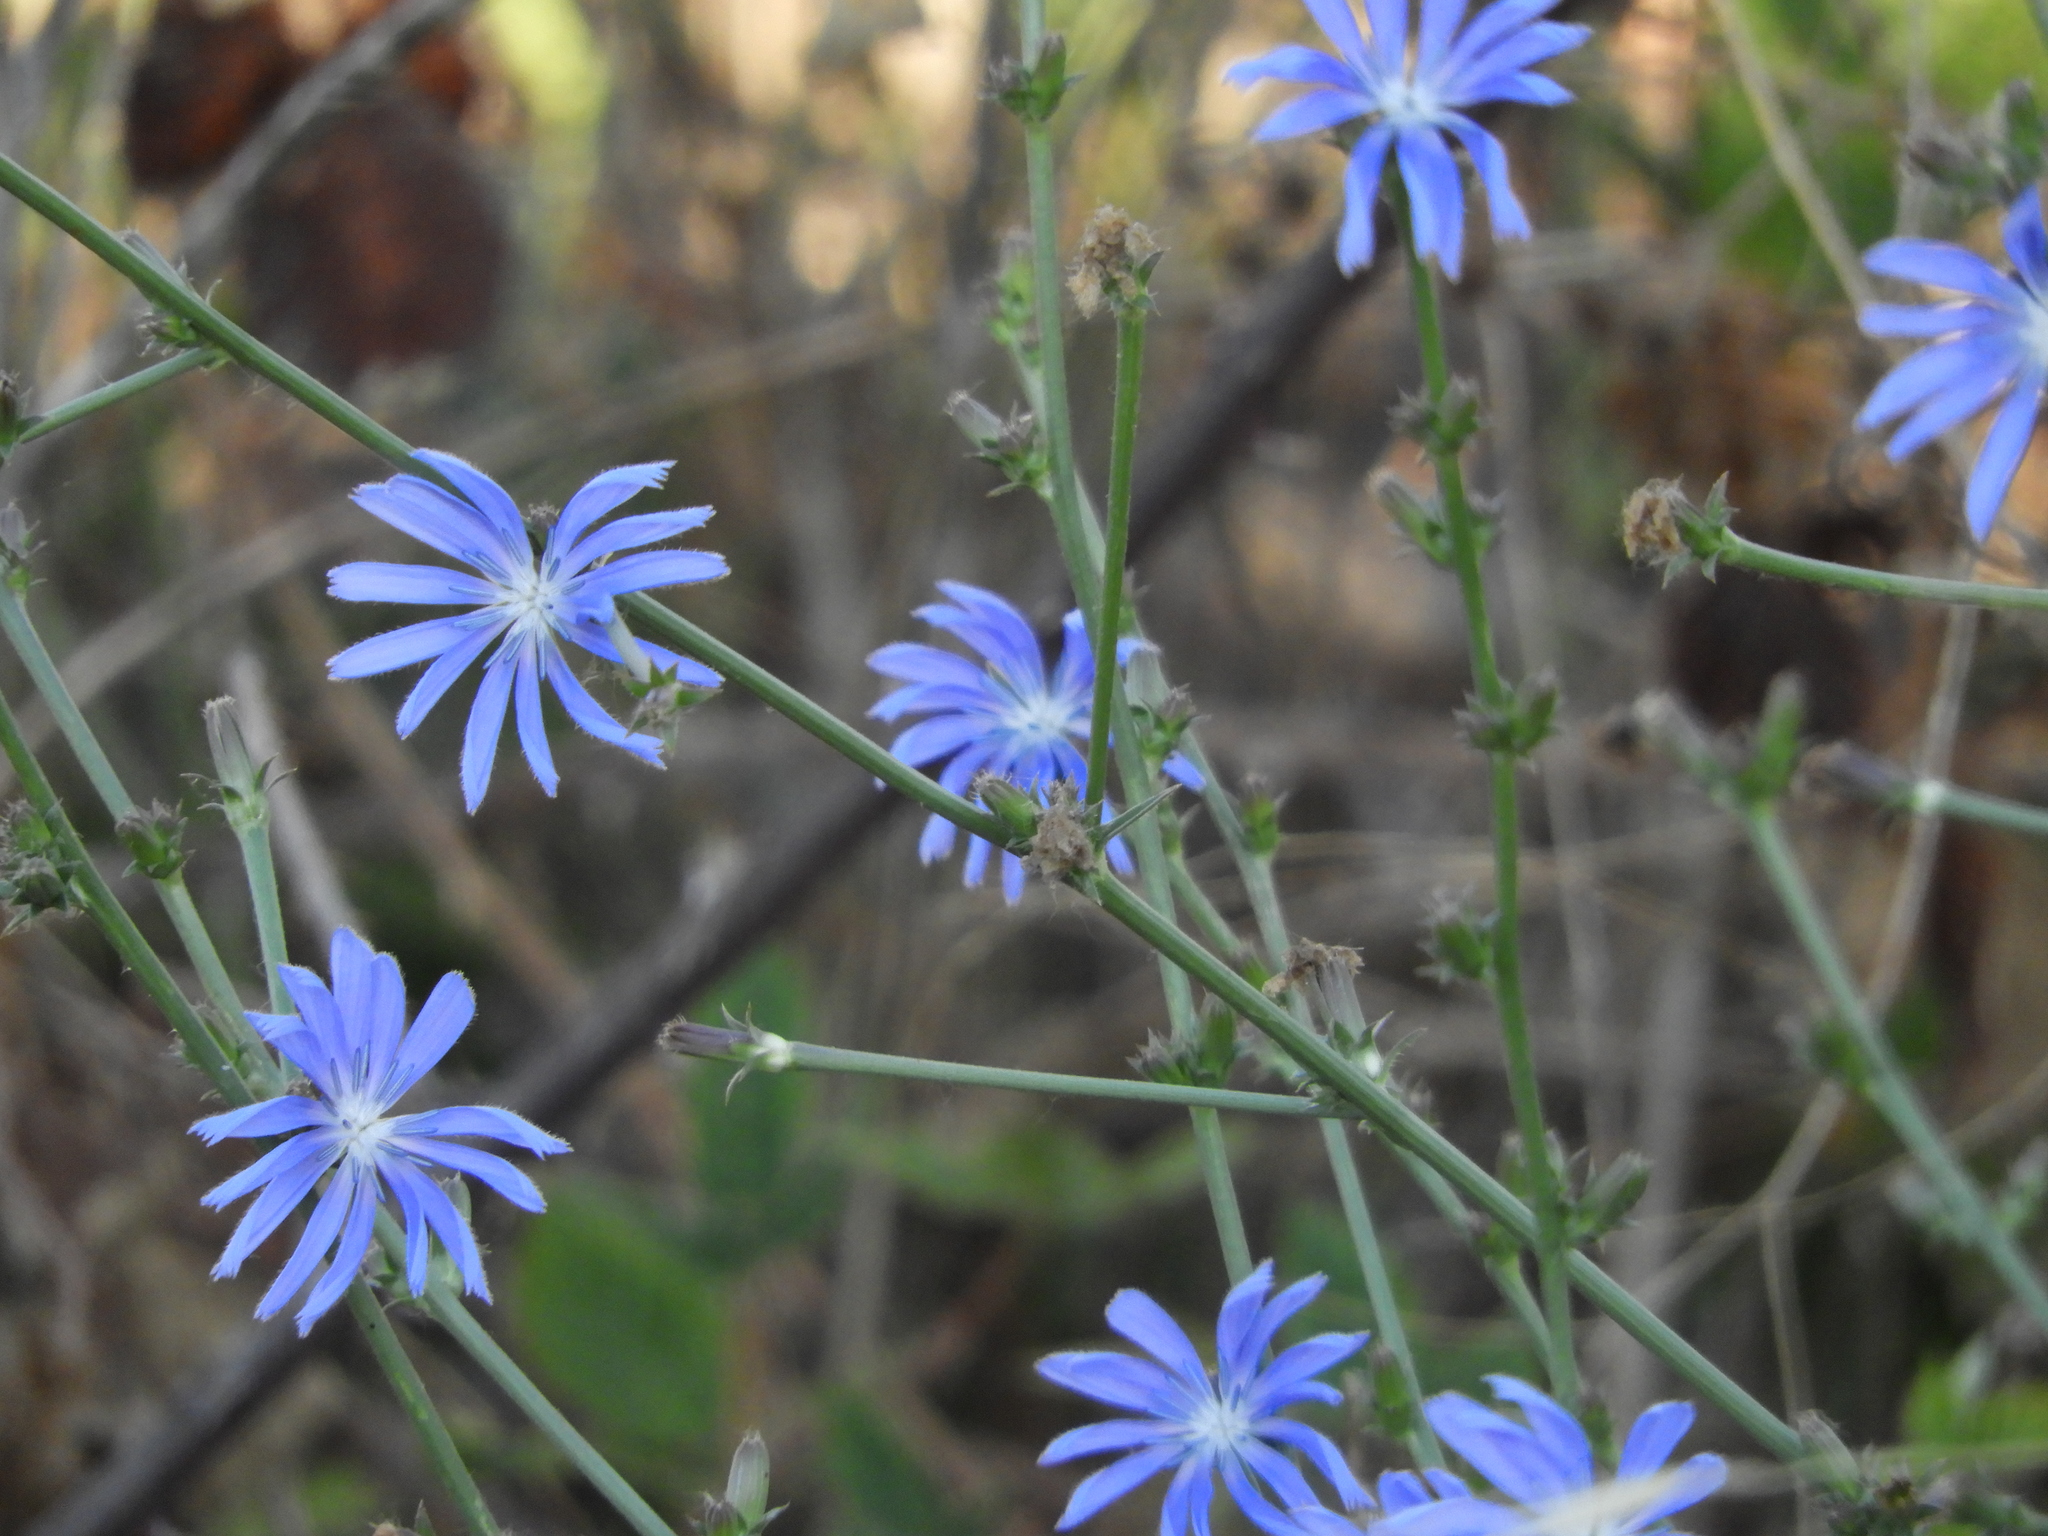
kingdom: Plantae
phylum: Tracheophyta
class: Magnoliopsida
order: Asterales
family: Asteraceae
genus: Cichorium
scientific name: Cichorium intybus
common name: Chicory
